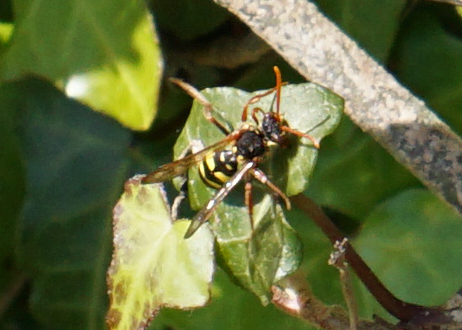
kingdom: Animalia
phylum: Arthropoda
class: Insecta
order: Hymenoptera
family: Apidae
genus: Nomada
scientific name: Nomada marshamella
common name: Marsham's nomad bee
